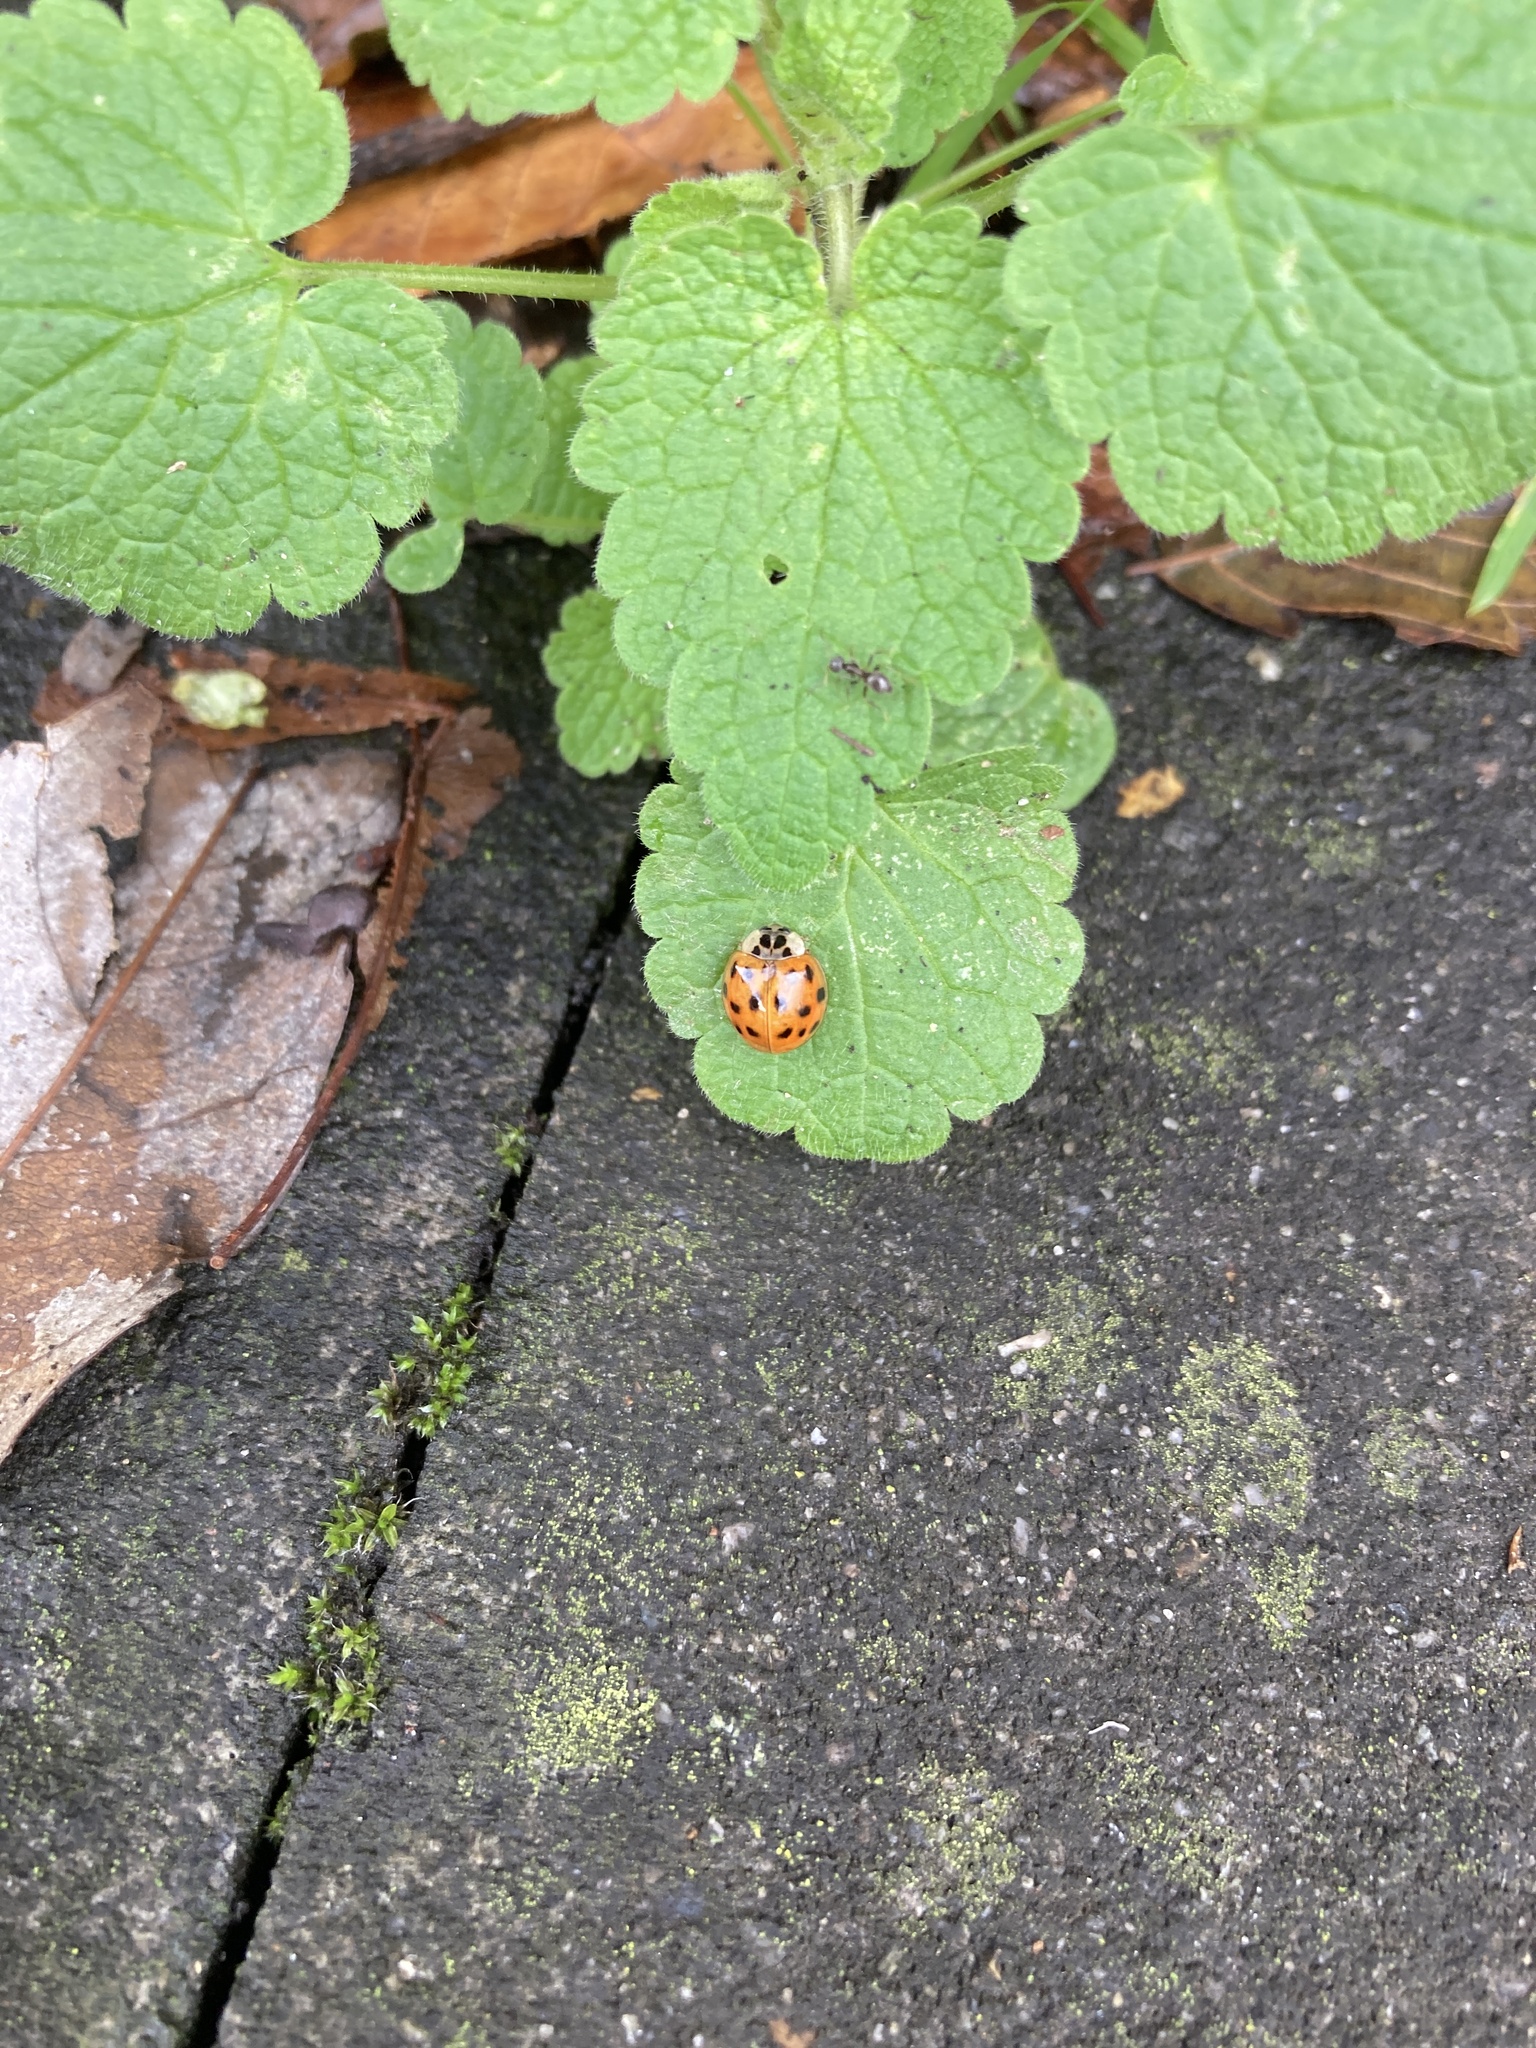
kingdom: Animalia
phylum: Arthropoda
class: Insecta
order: Coleoptera
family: Coccinellidae
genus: Harmonia
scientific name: Harmonia axyridis
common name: Harlequin ladybird
